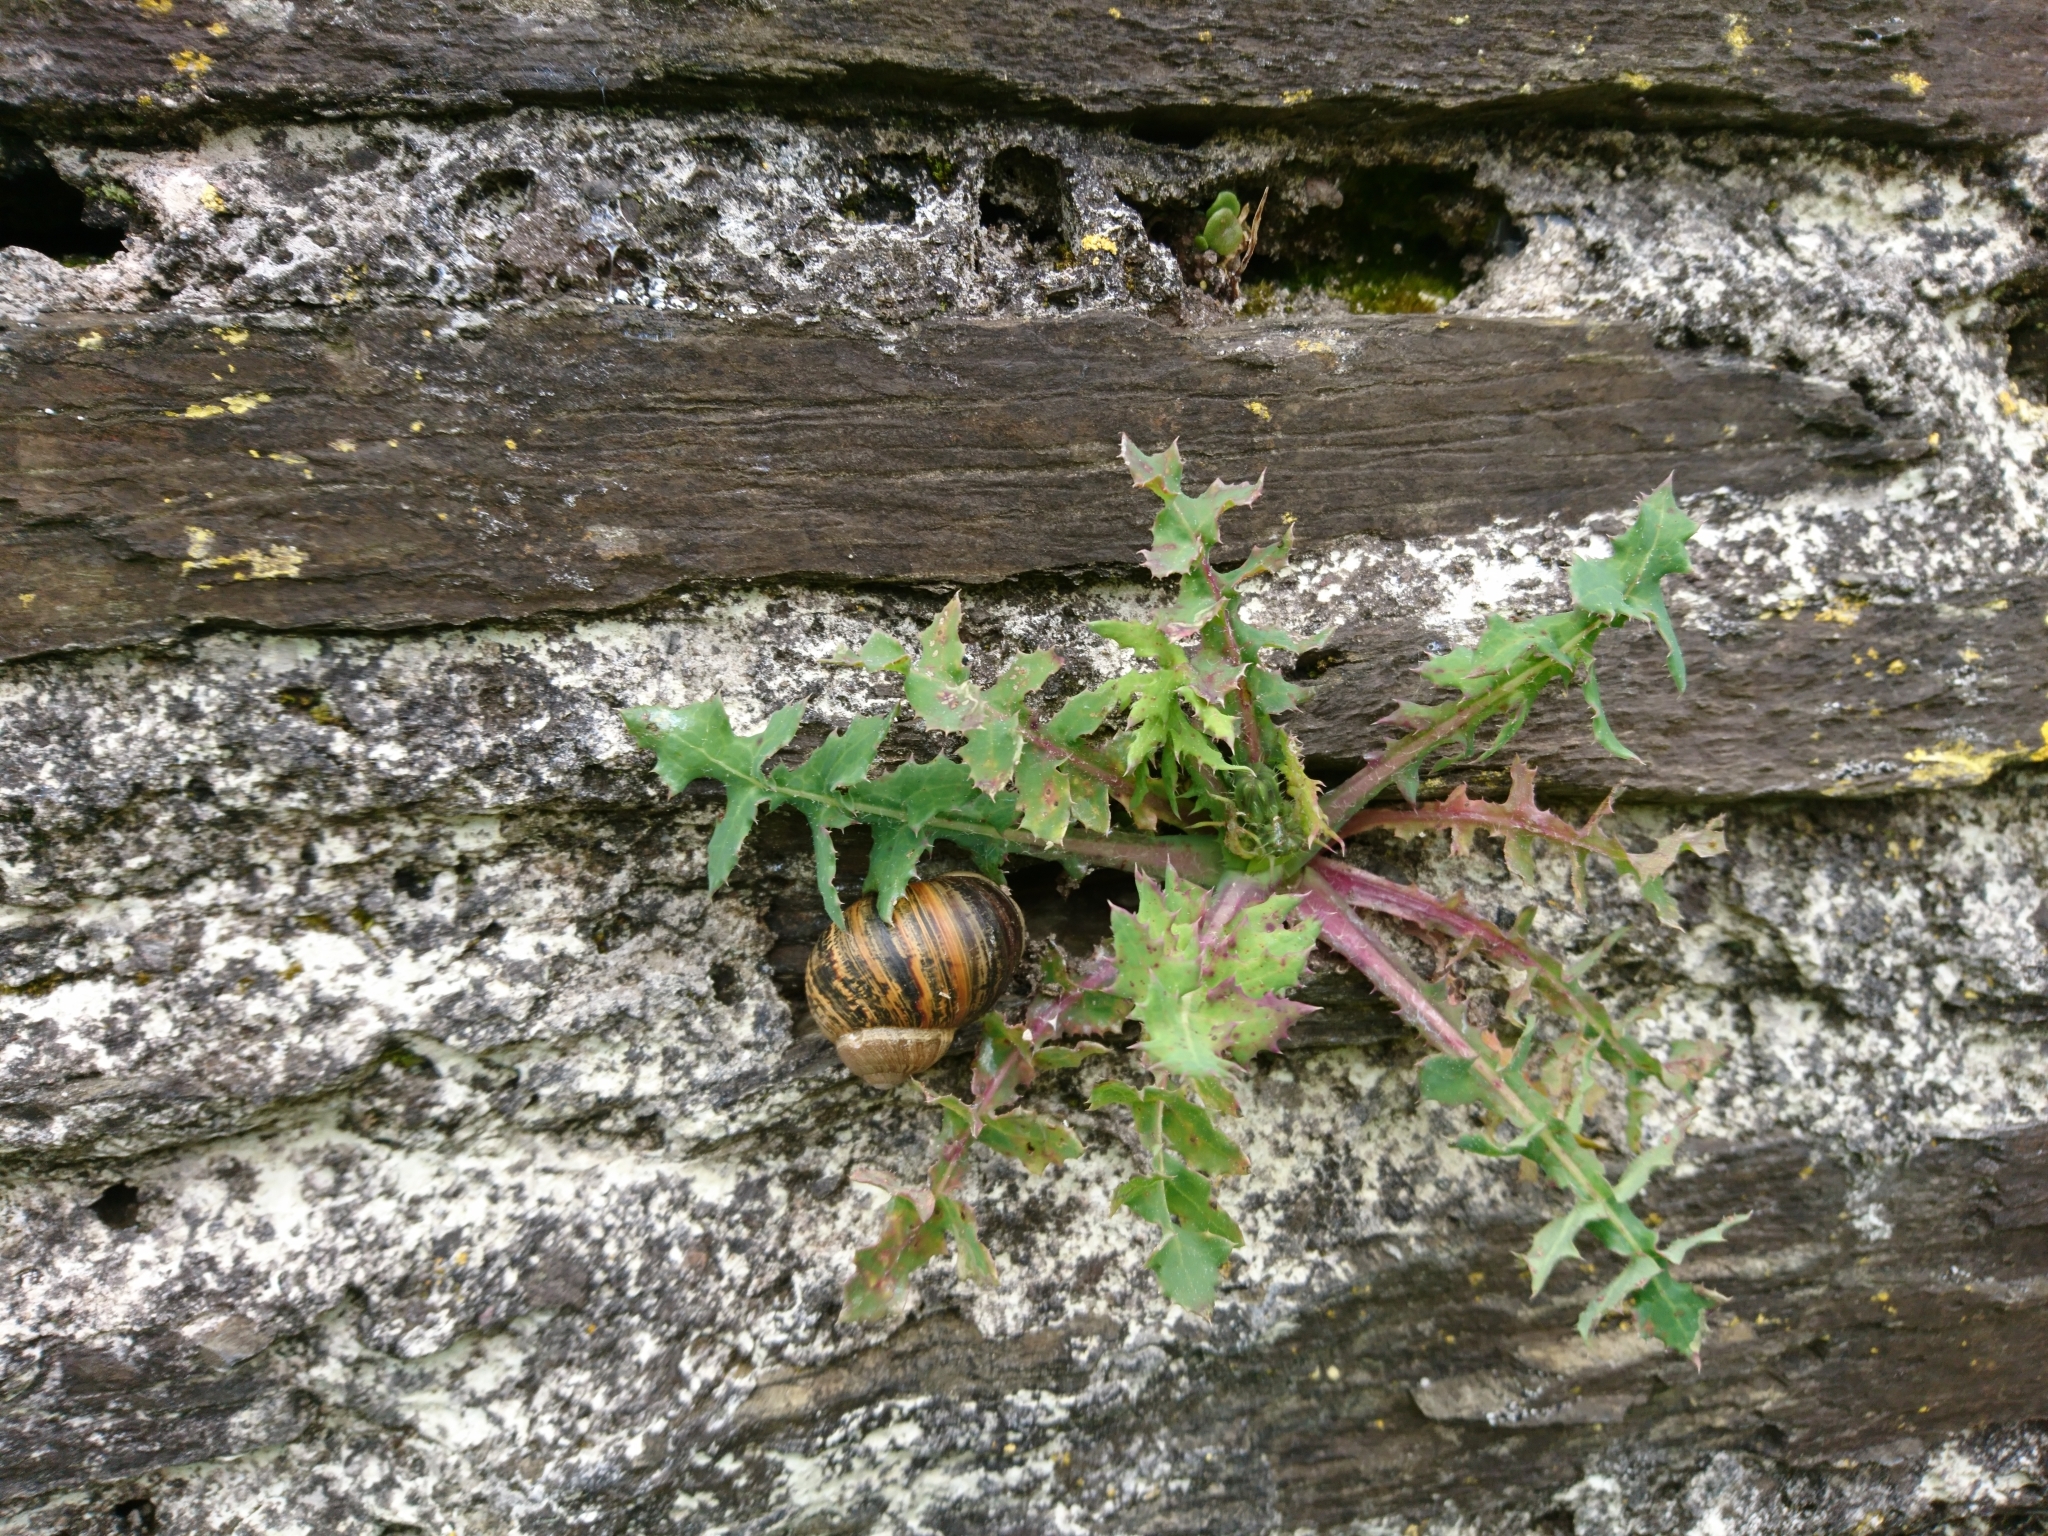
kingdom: Animalia
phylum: Mollusca
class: Gastropoda
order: Stylommatophora
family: Helicidae
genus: Cornu
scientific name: Cornu aspersum
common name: Brown garden snail
